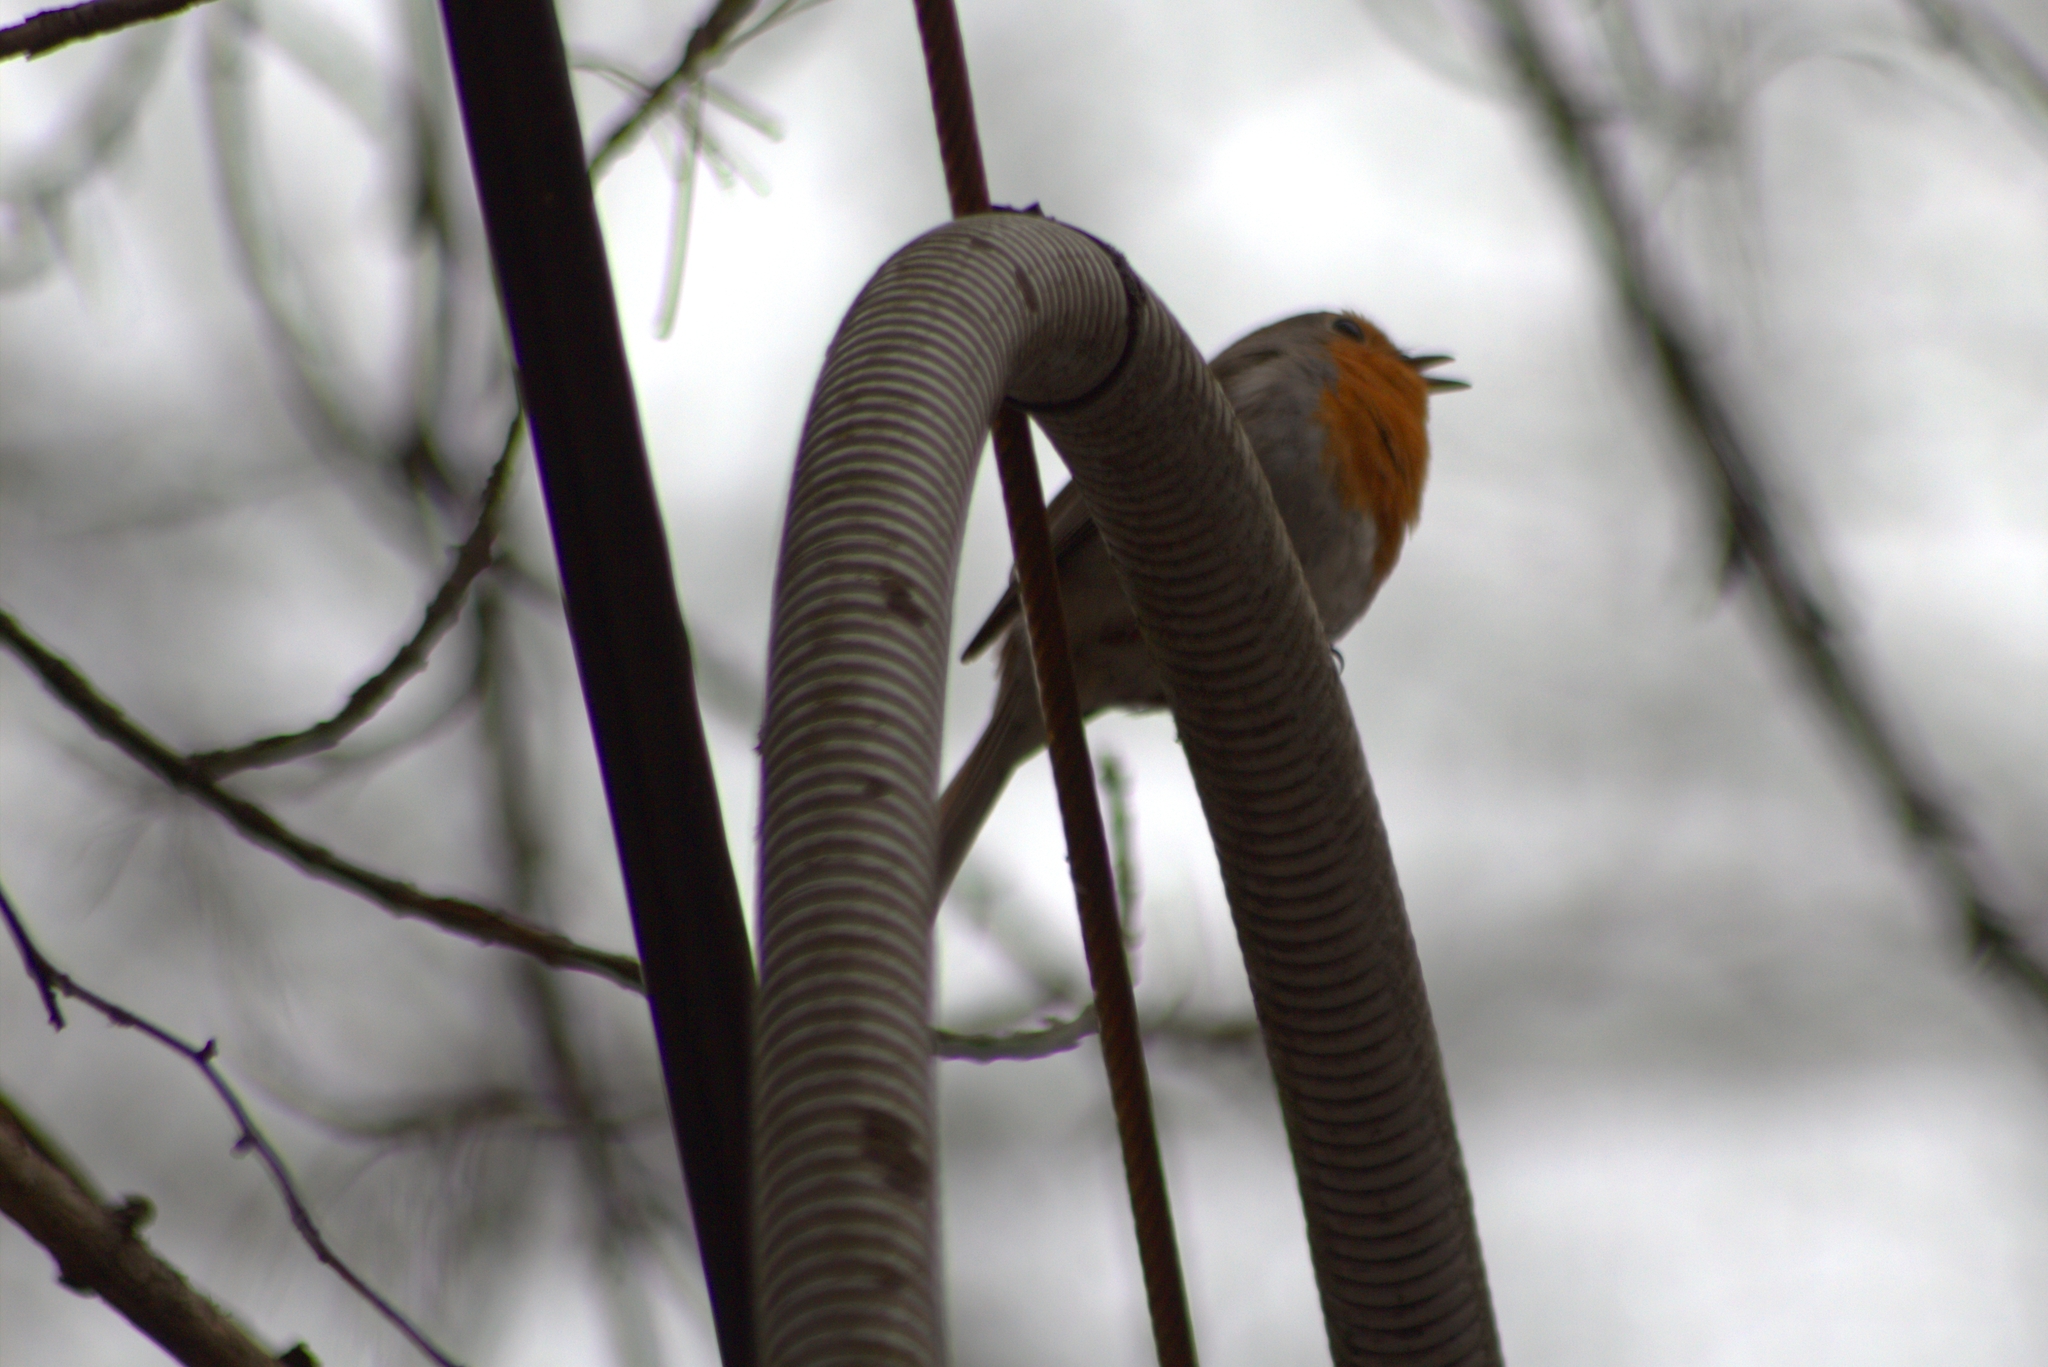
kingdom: Animalia
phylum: Chordata
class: Aves
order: Passeriformes
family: Muscicapidae
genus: Erithacus
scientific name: Erithacus rubecula
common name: European robin
